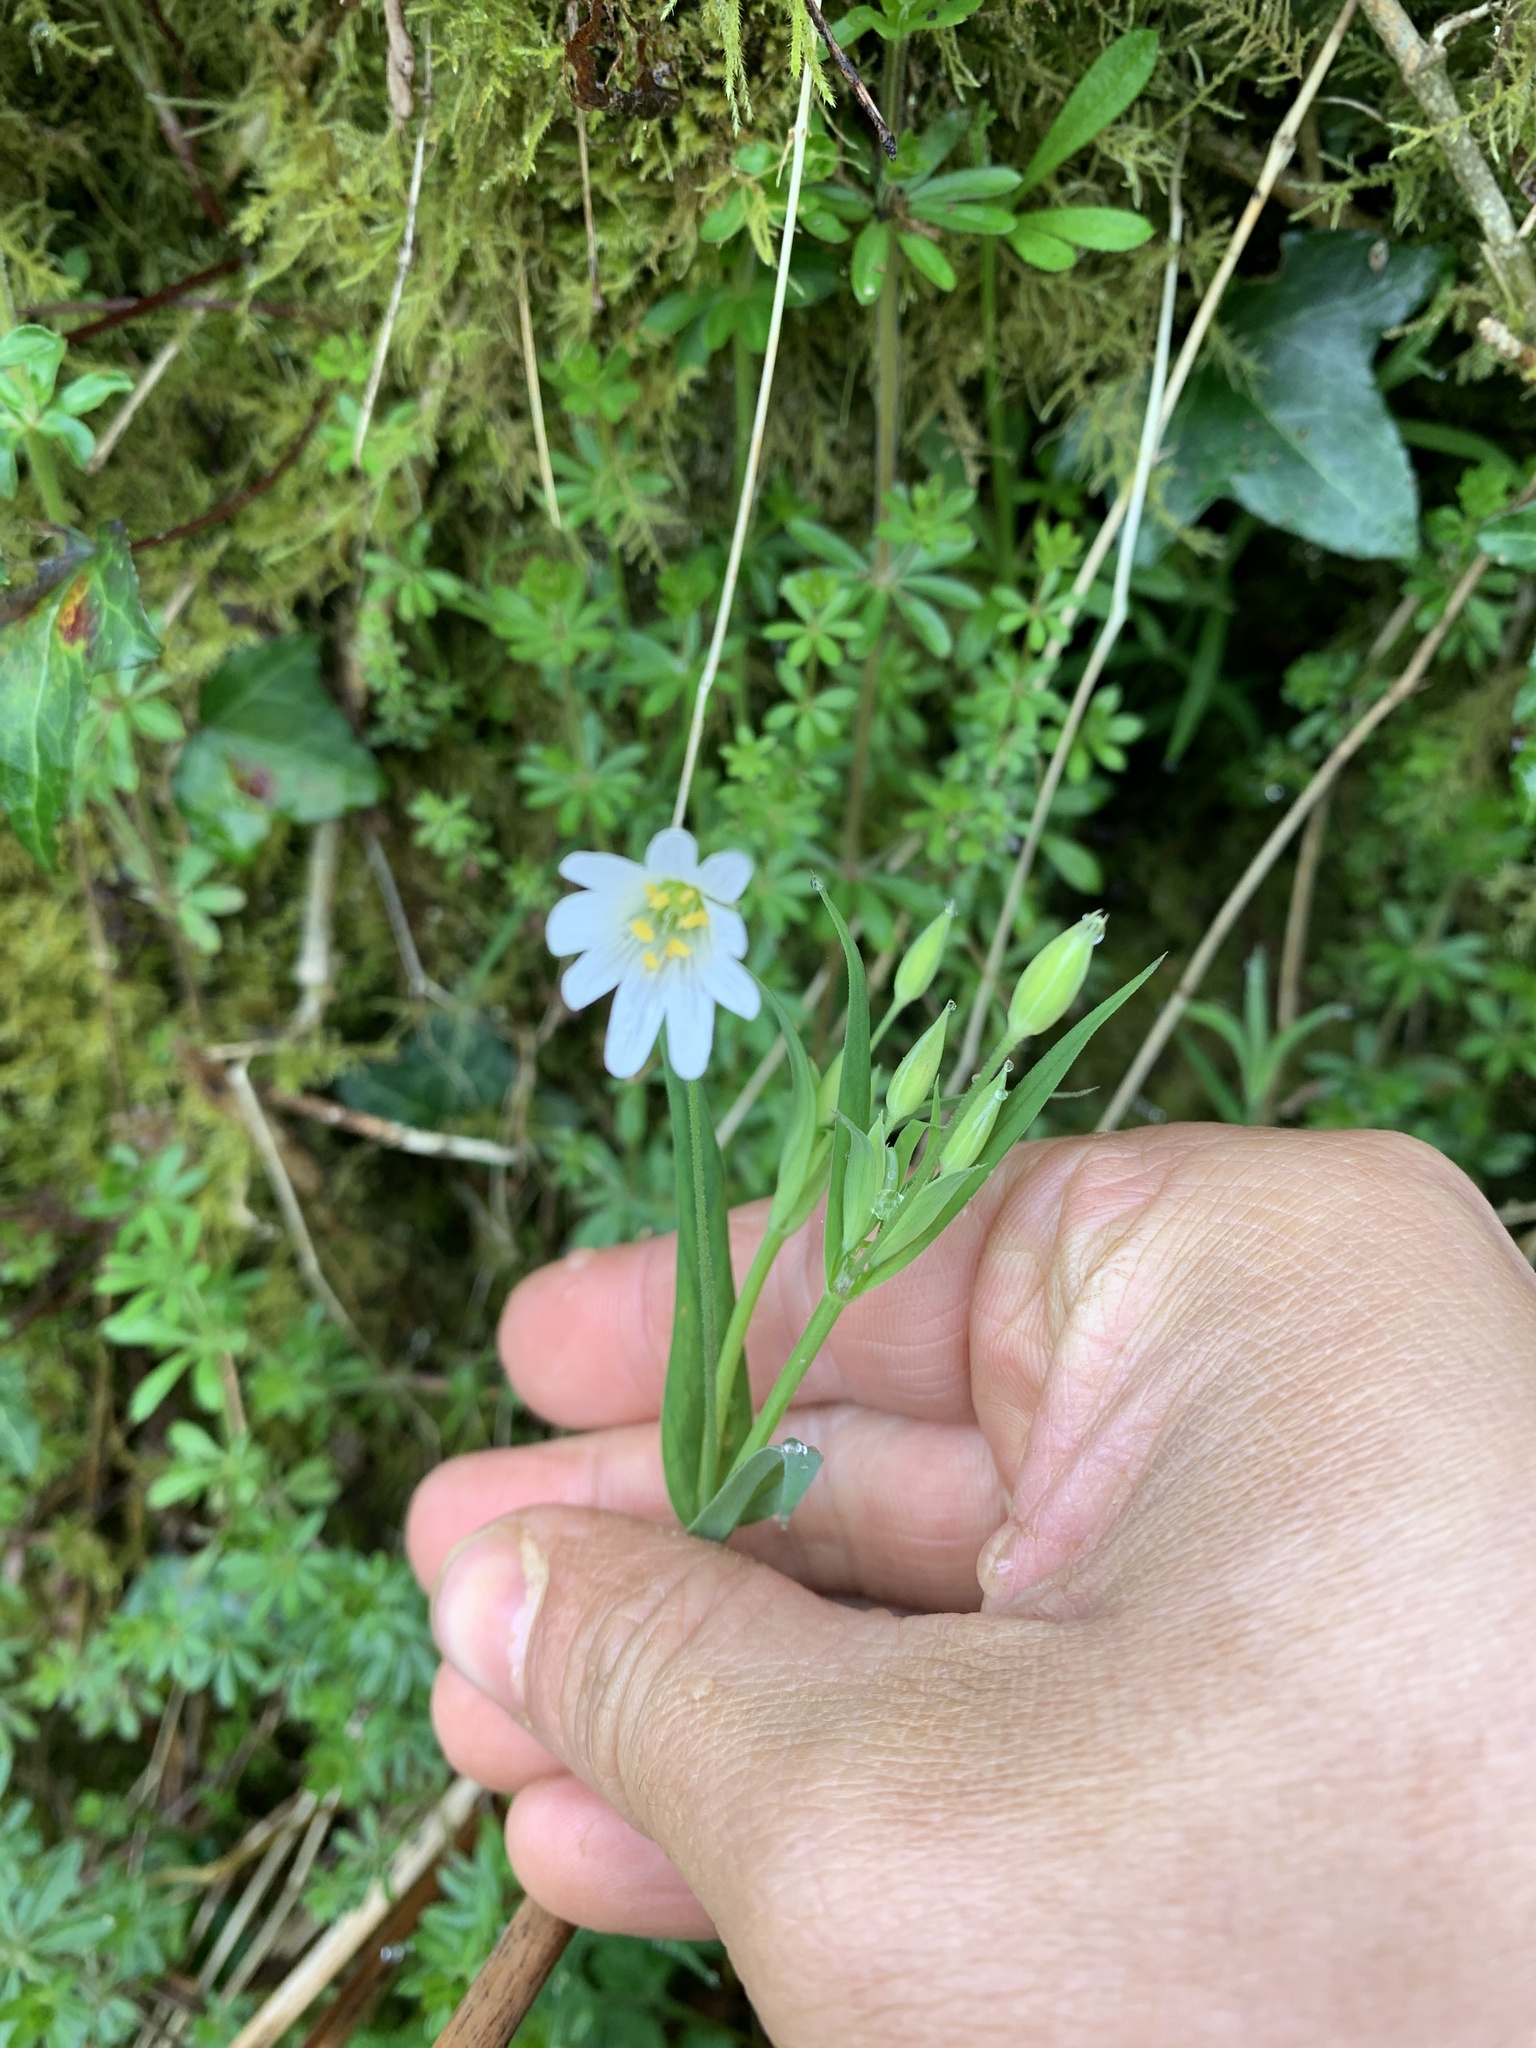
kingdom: Plantae
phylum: Tracheophyta
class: Magnoliopsida
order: Caryophyllales
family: Caryophyllaceae
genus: Rabelera
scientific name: Rabelera holostea
